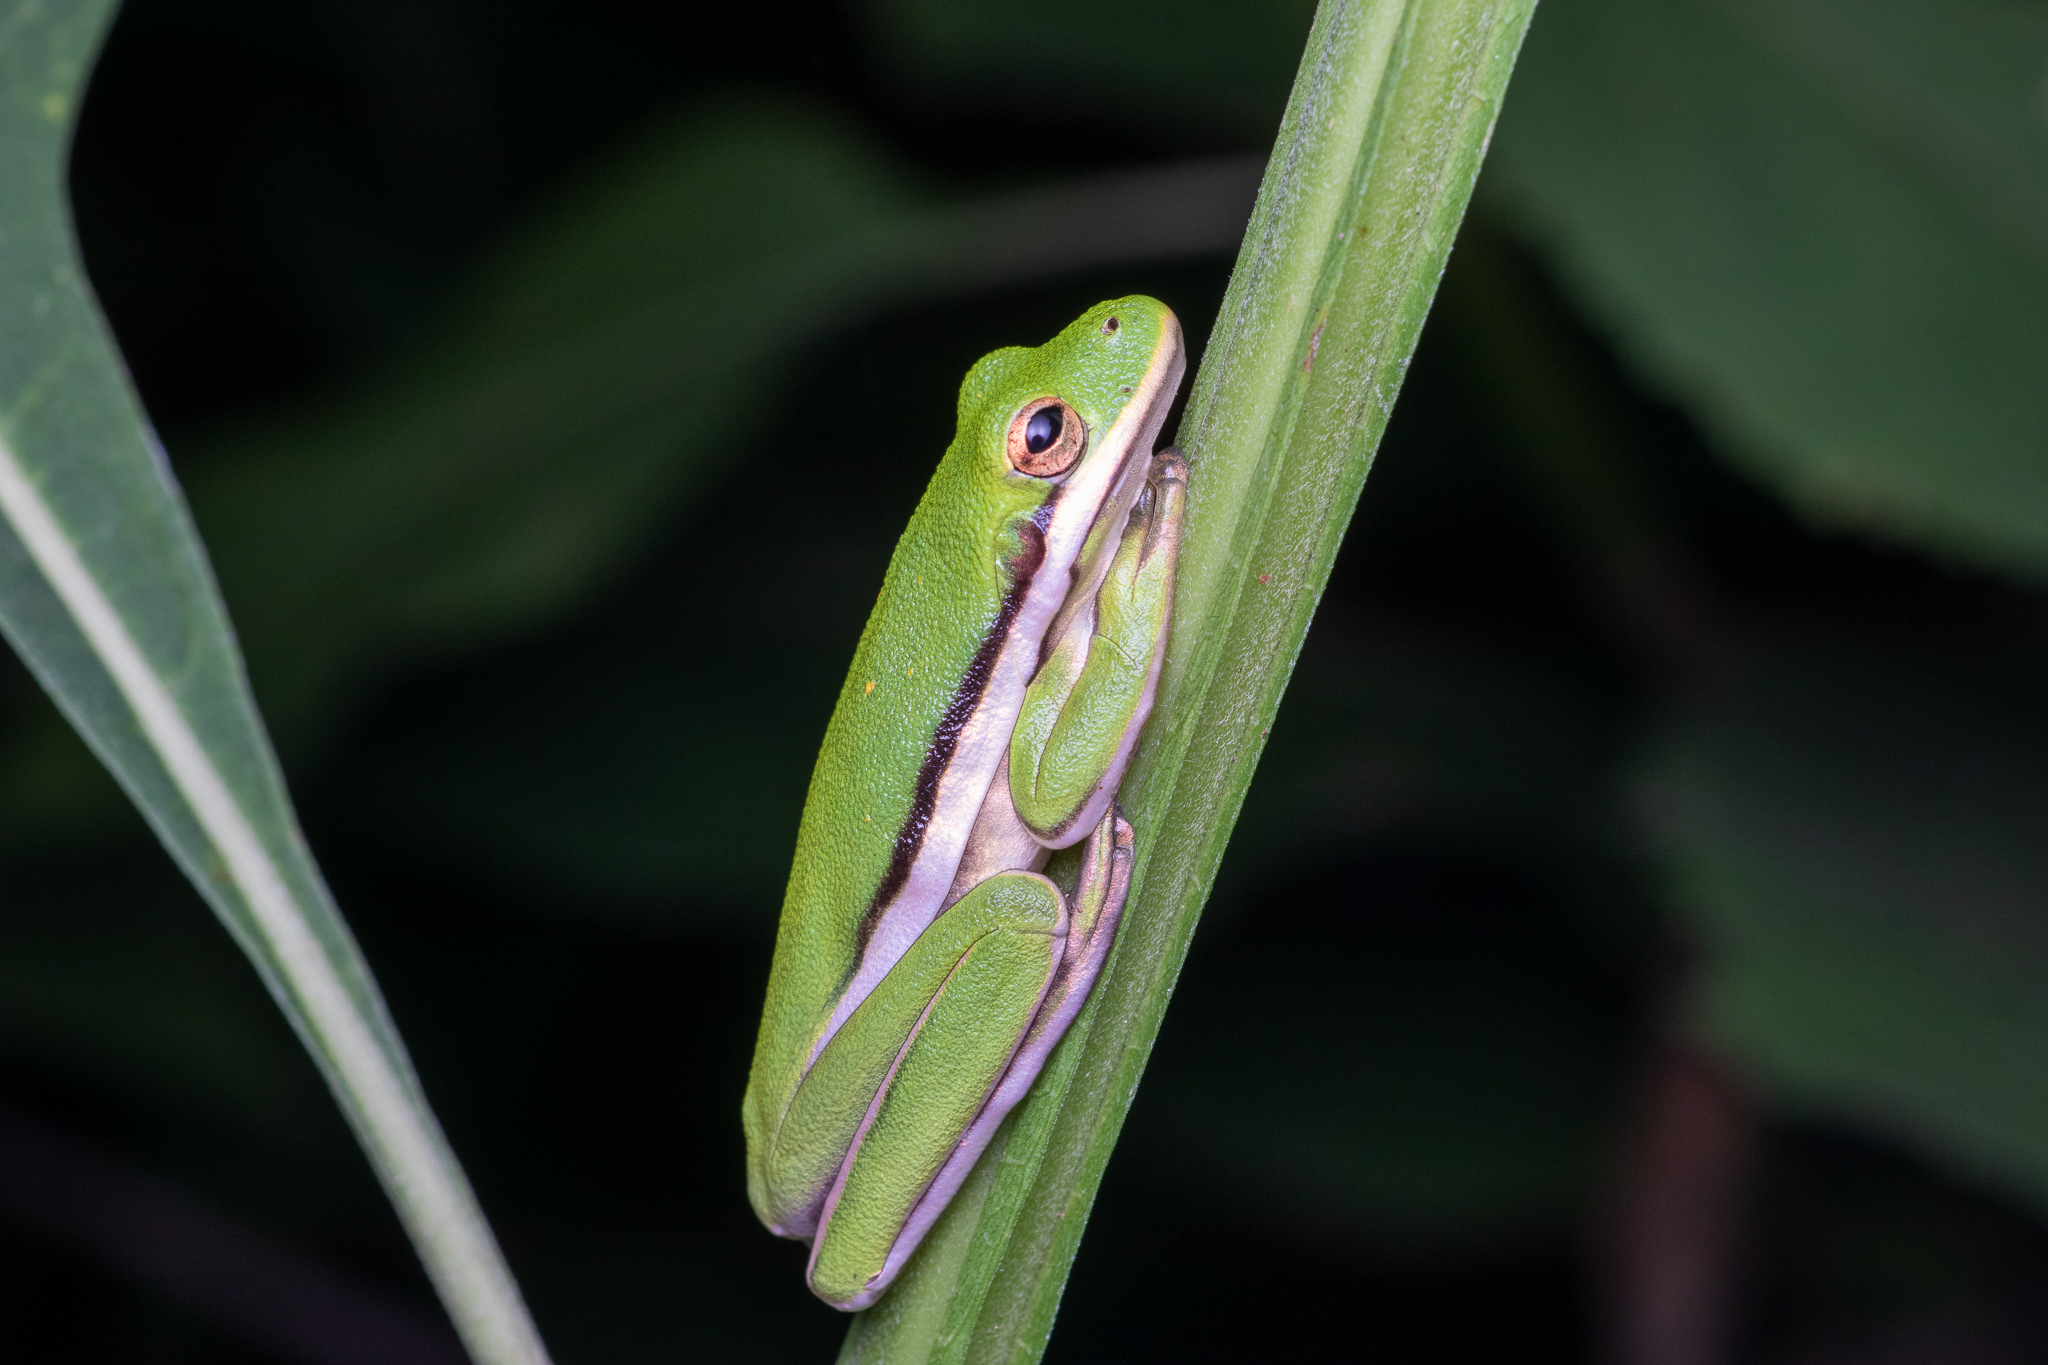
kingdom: Animalia
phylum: Chordata
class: Amphibia
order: Anura
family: Hylidae
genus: Dryophytes
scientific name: Dryophytes cinereus
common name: Green treefrog
